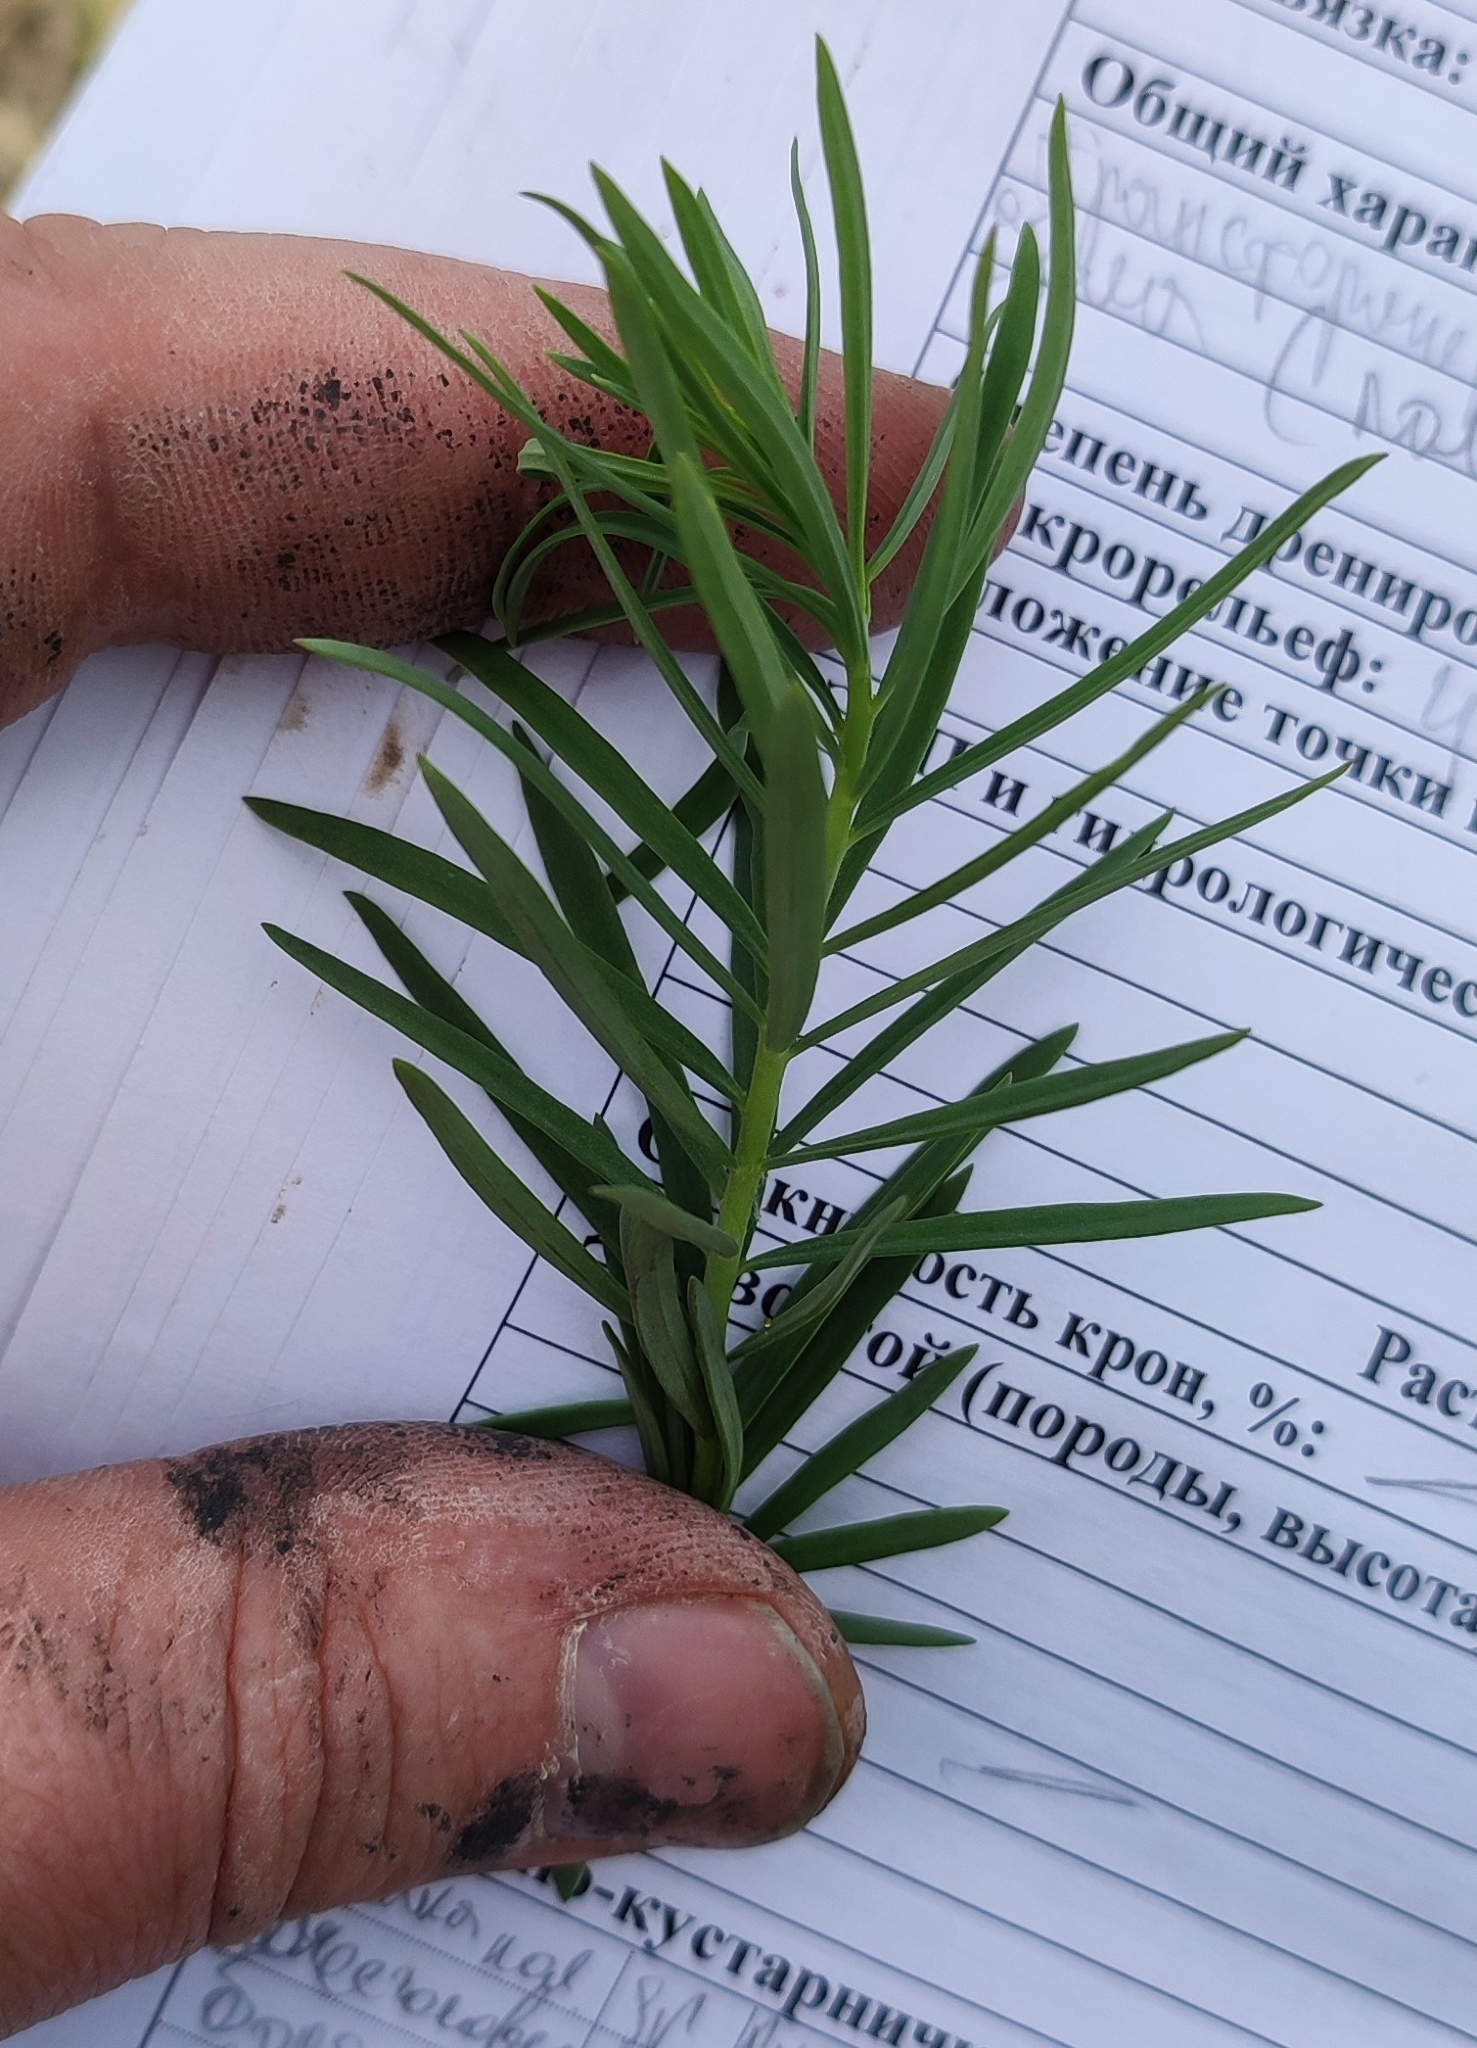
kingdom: Plantae
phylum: Tracheophyta
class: Magnoliopsida
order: Lamiales
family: Plantaginaceae
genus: Linaria
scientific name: Linaria vulgaris
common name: Butter and eggs
